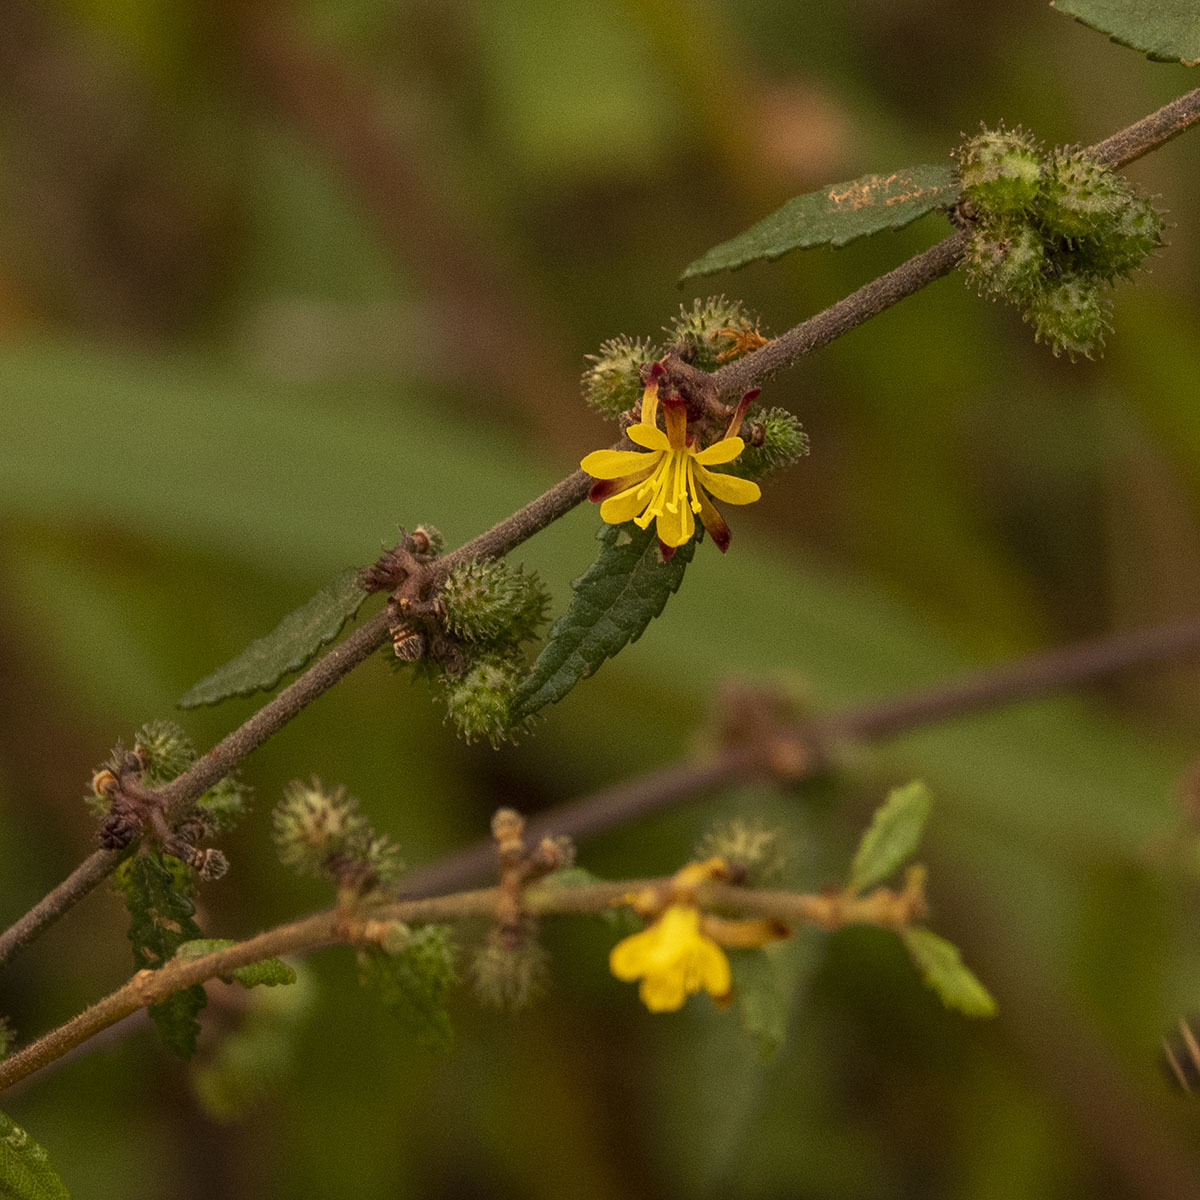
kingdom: Plantae
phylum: Tracheophyta
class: Magnoliopsida
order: Malvales
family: Malvaceae
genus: Triumfetta
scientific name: Triumfetta rhomboidea
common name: Diamond burbark
